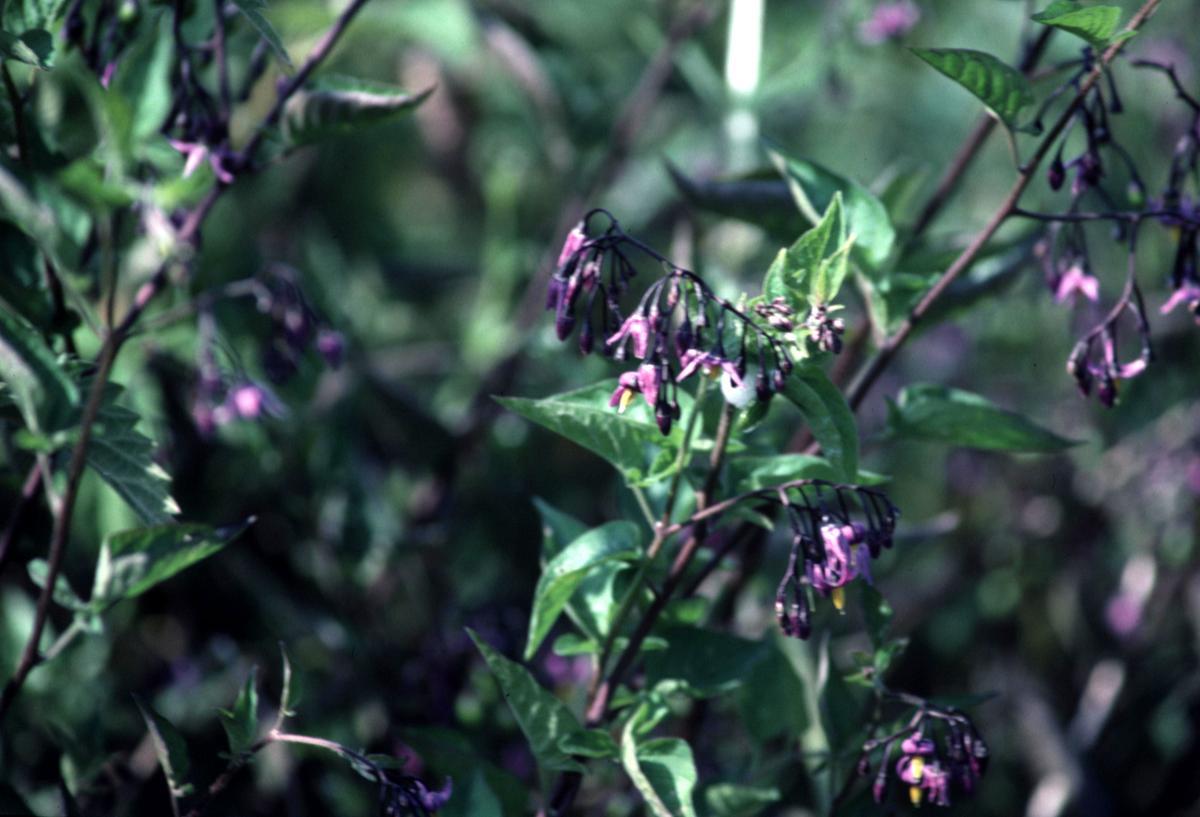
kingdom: Plantae
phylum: Tracheophyta
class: Magnoliopsida
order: Solanales
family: Solanaceae
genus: Solanum
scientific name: Solanum dulcamara
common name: Climbing nightshade
